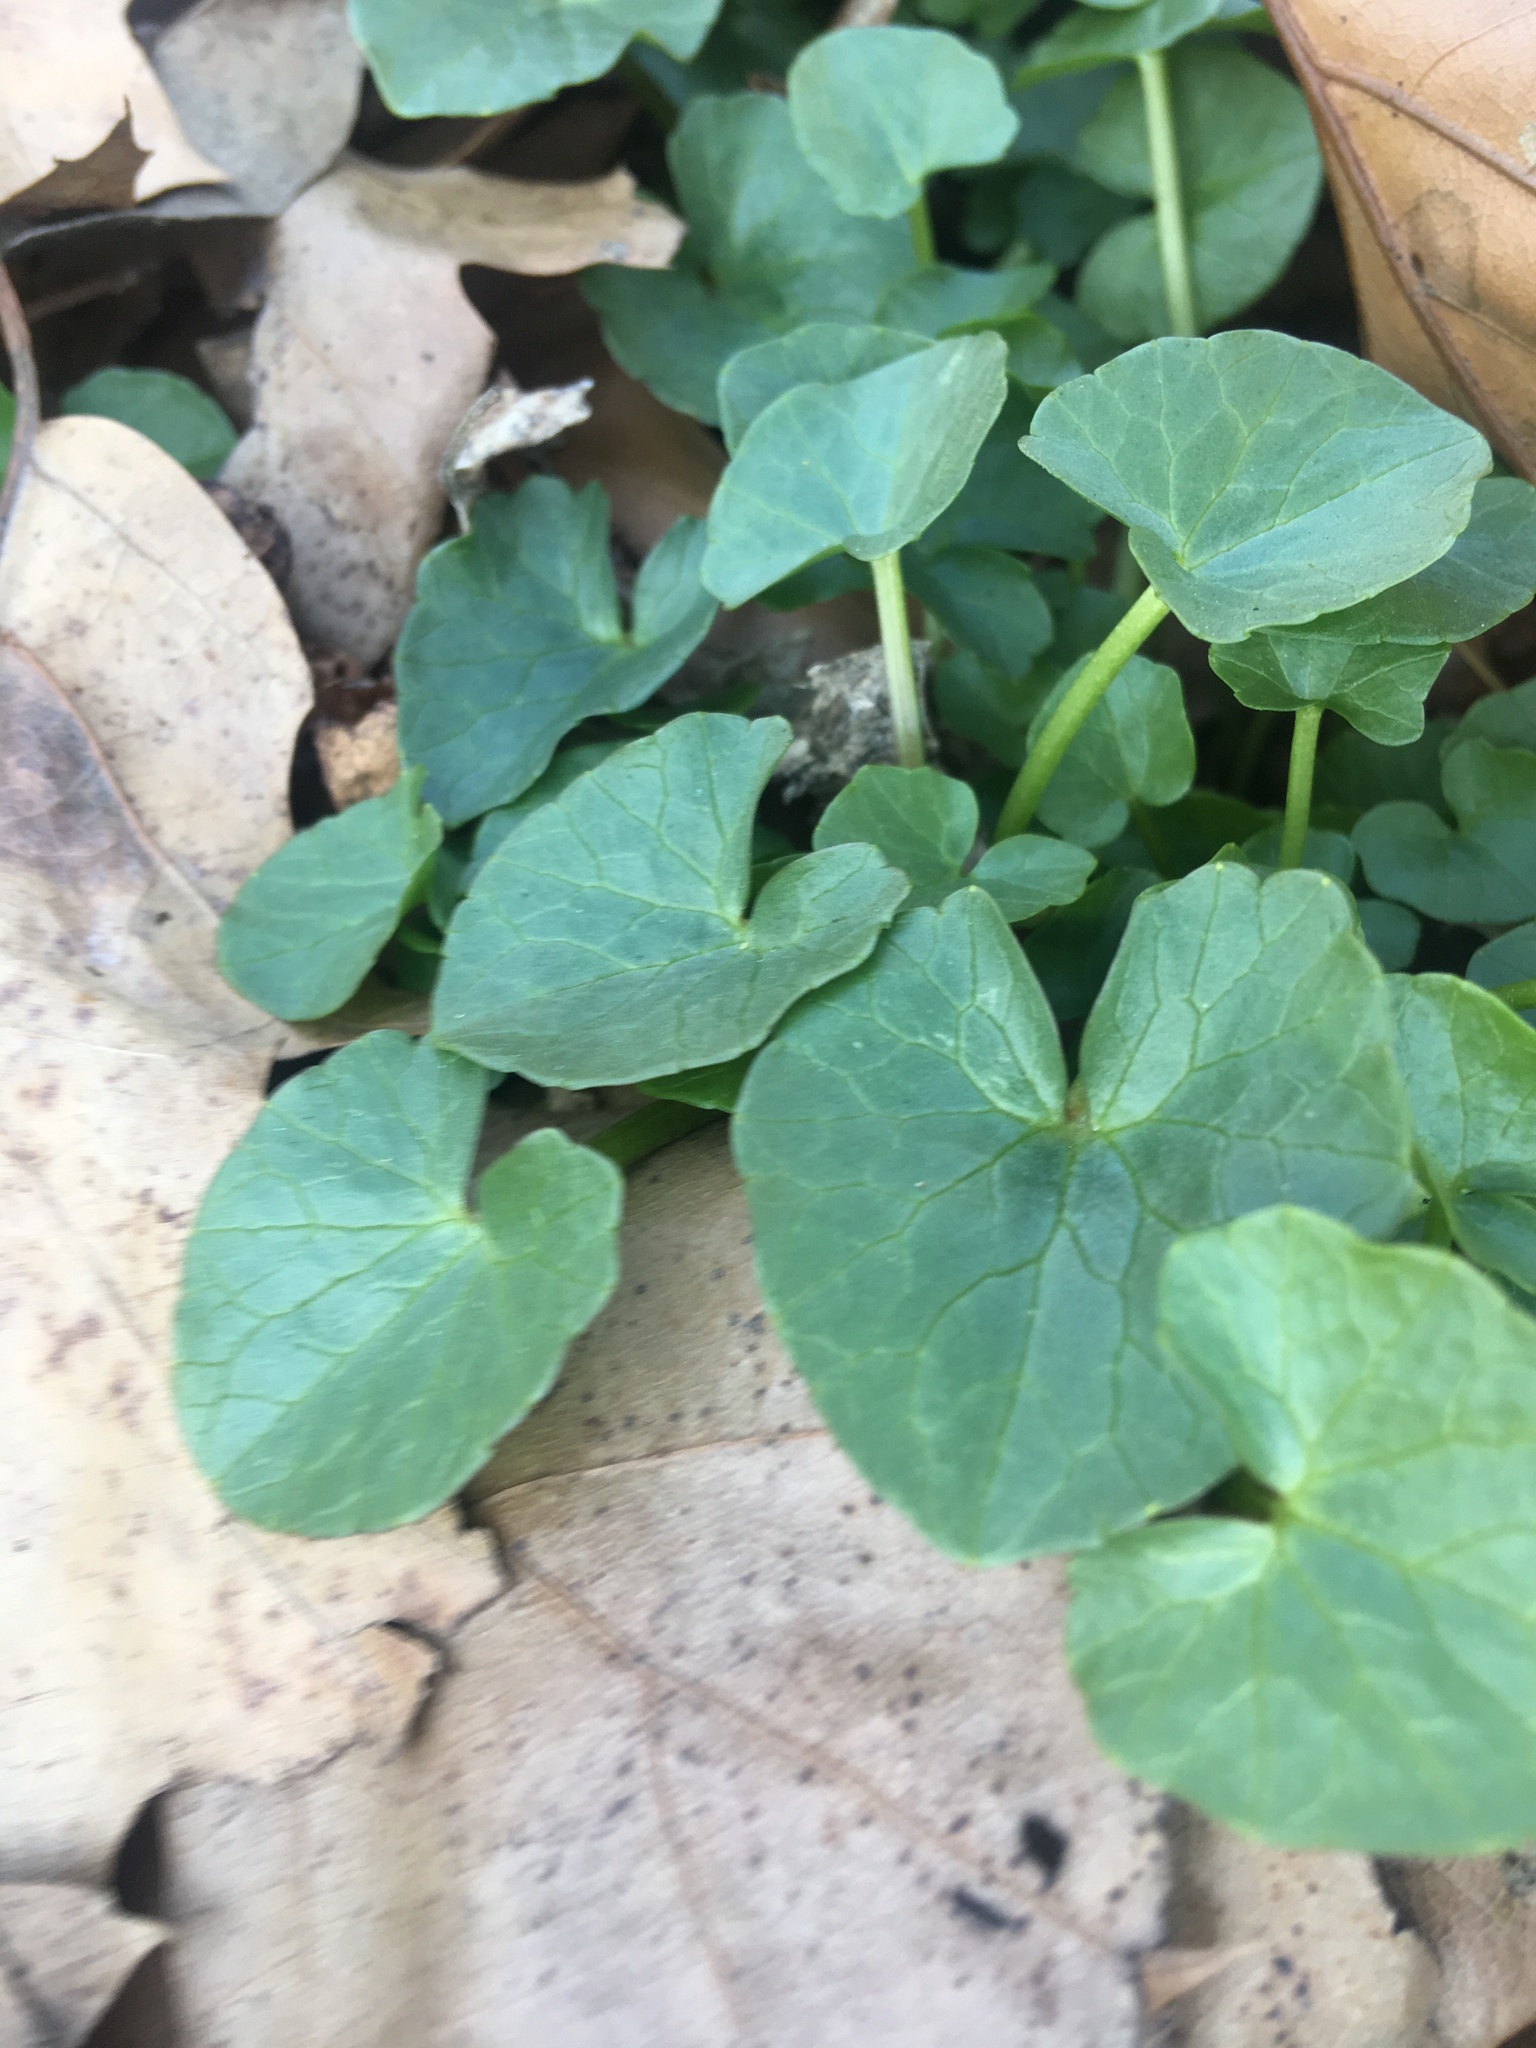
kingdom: Plantae
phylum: Tracheophyta
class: Magnoliopsida
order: Ranunculales
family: Ranunculaceae
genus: Ficaria
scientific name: Ficaria verna
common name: Lesser celandine
